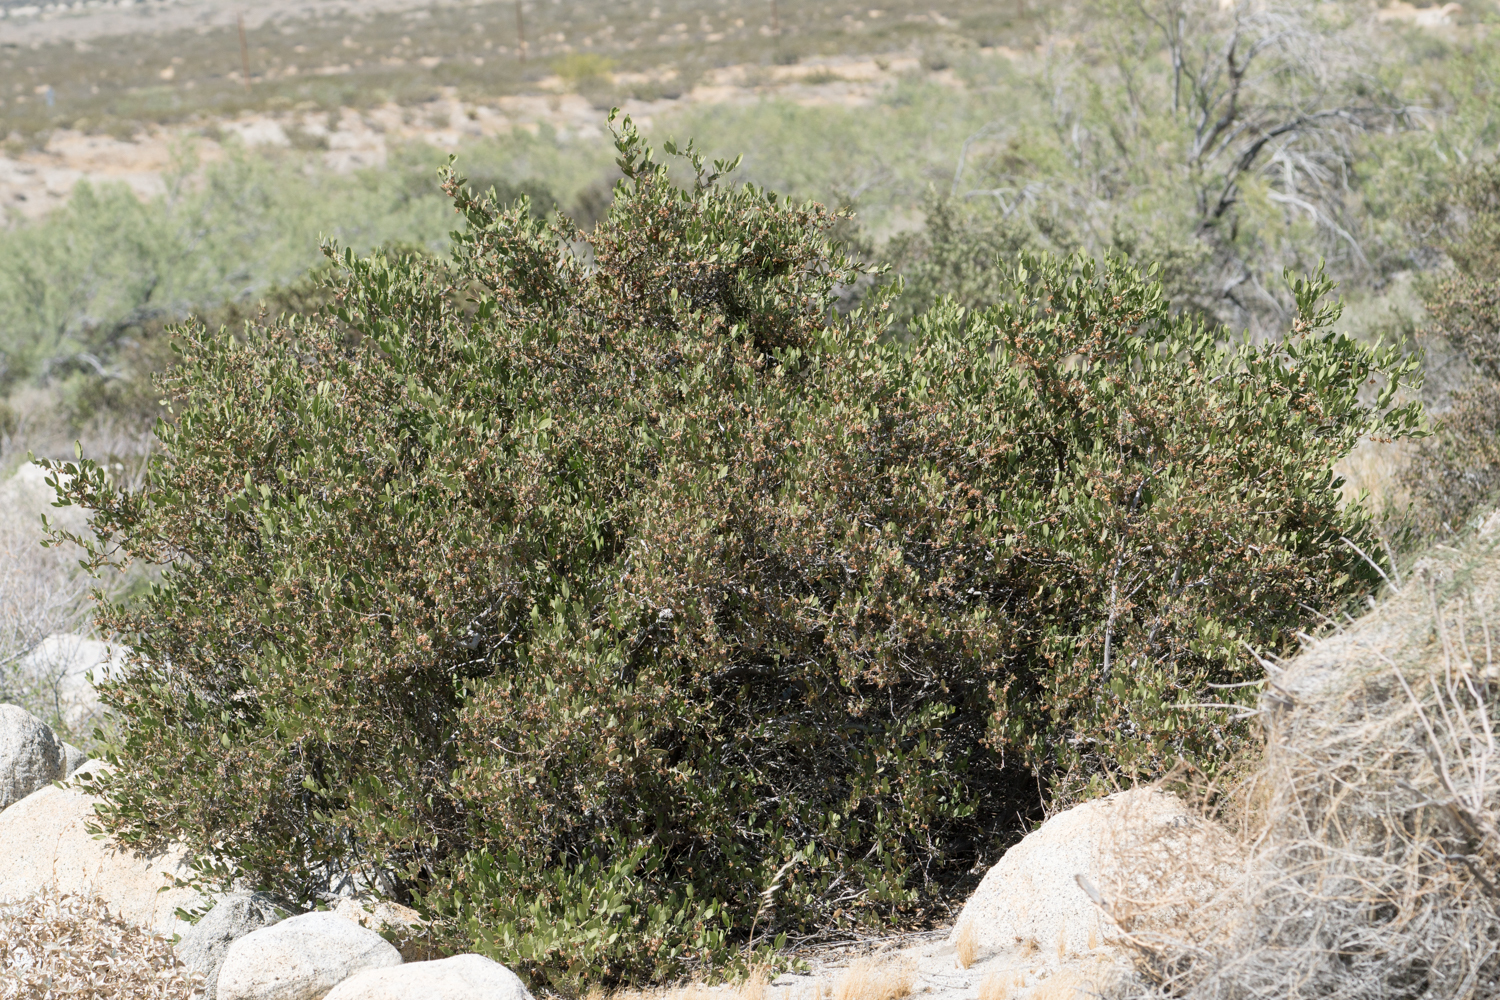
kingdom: Plantae
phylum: Tracheophyta
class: Magnoliopsida
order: Caryophyllales
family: Simmondsiaceae
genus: Simmondsia
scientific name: Simmondsia chinensis
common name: Jojoba
